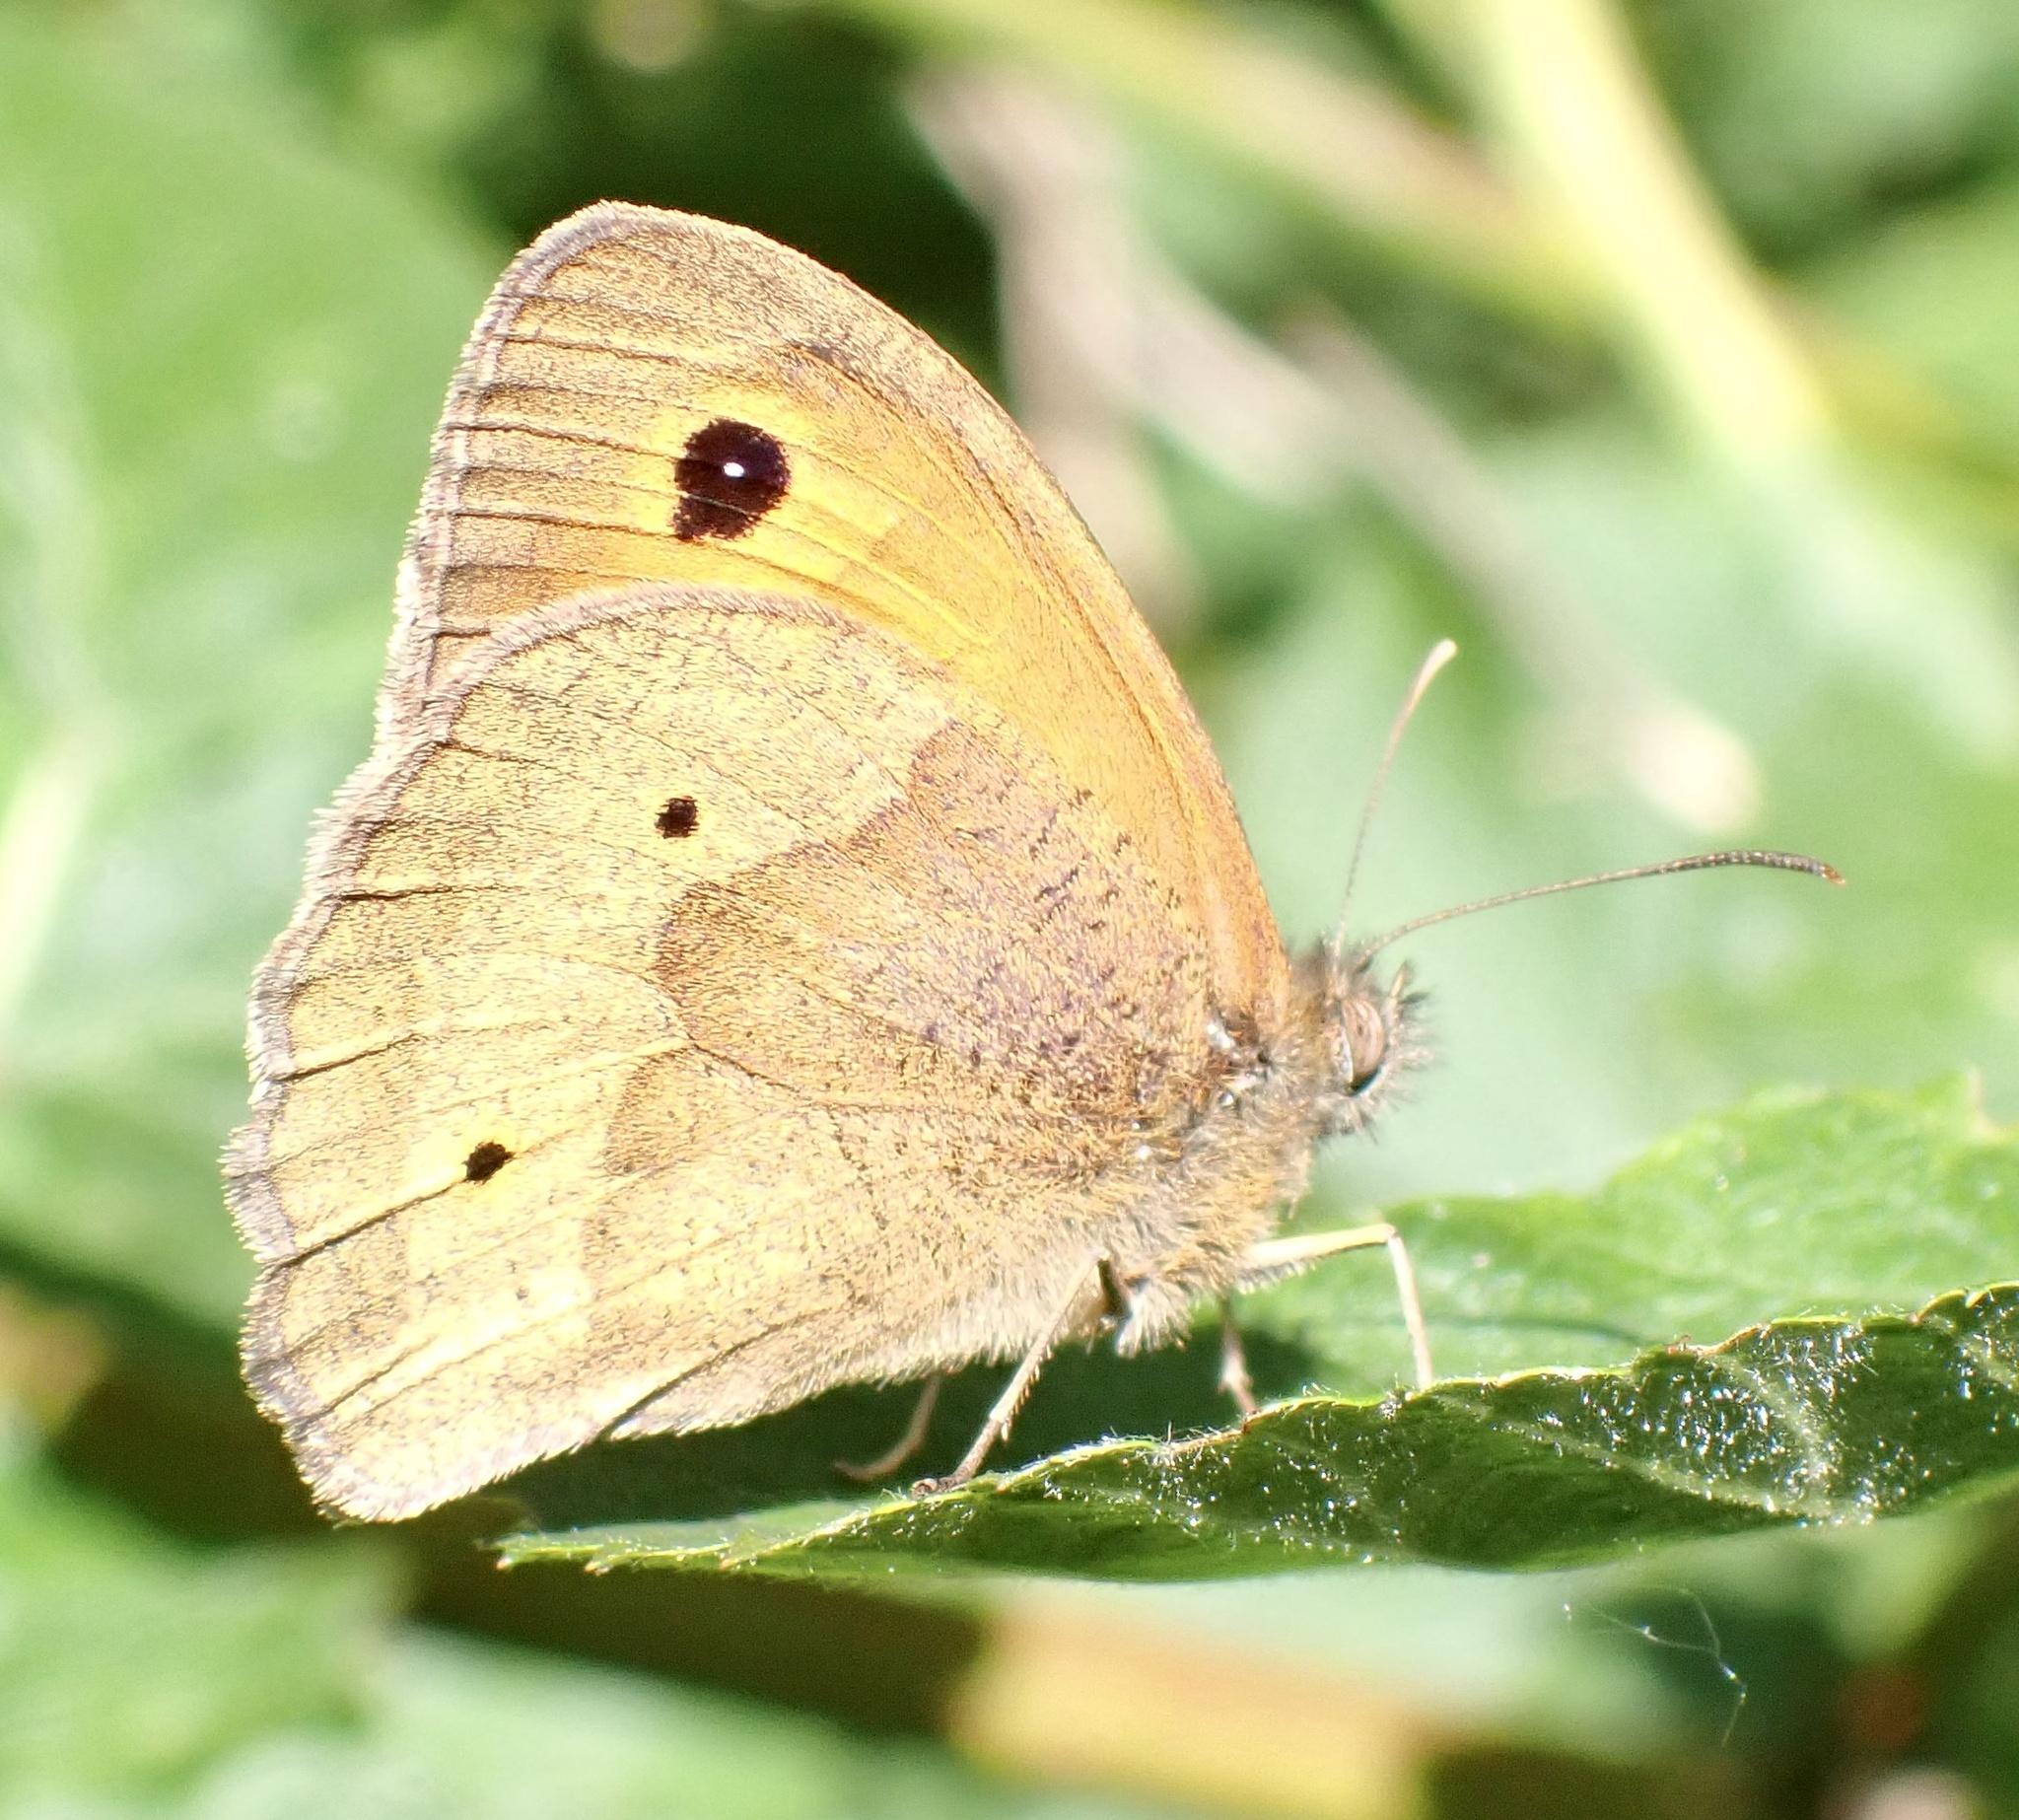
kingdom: Animalia
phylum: Arthropoda
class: Insecta
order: Lepidoptera
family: Nymphalidae
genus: Maniola
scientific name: Maniola jurtina
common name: Meadow brown
